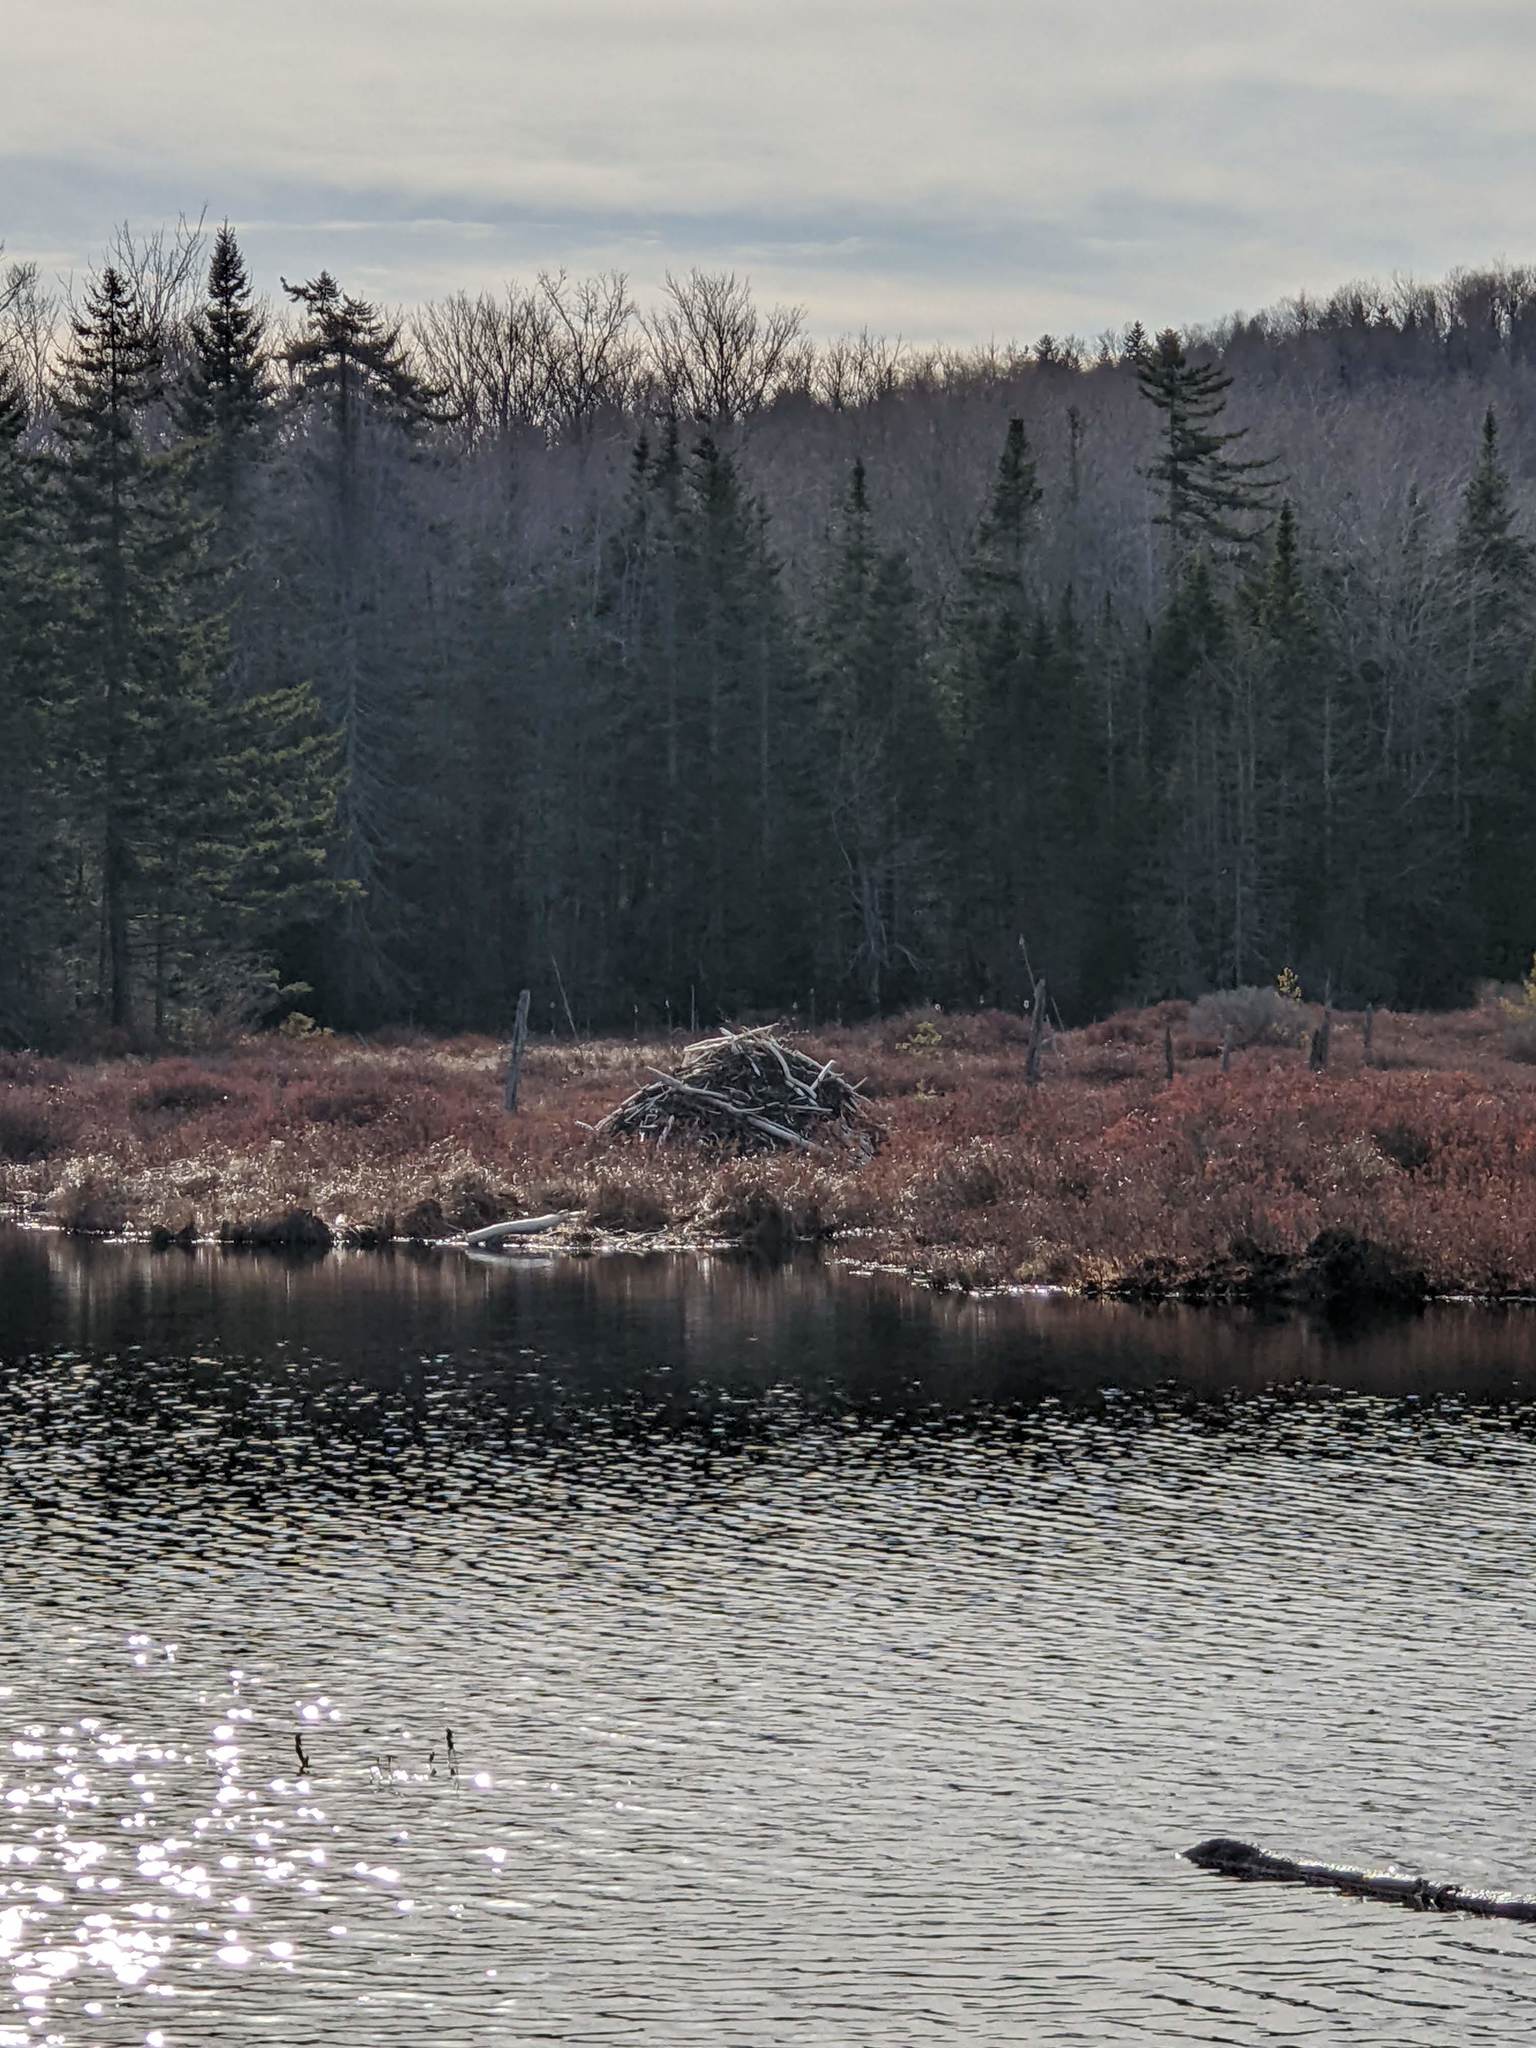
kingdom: Animalia
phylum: Chordata
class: Mammalia
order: Rodentia
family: Castoridae
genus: Castor
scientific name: Castor canadensis
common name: American beaver
